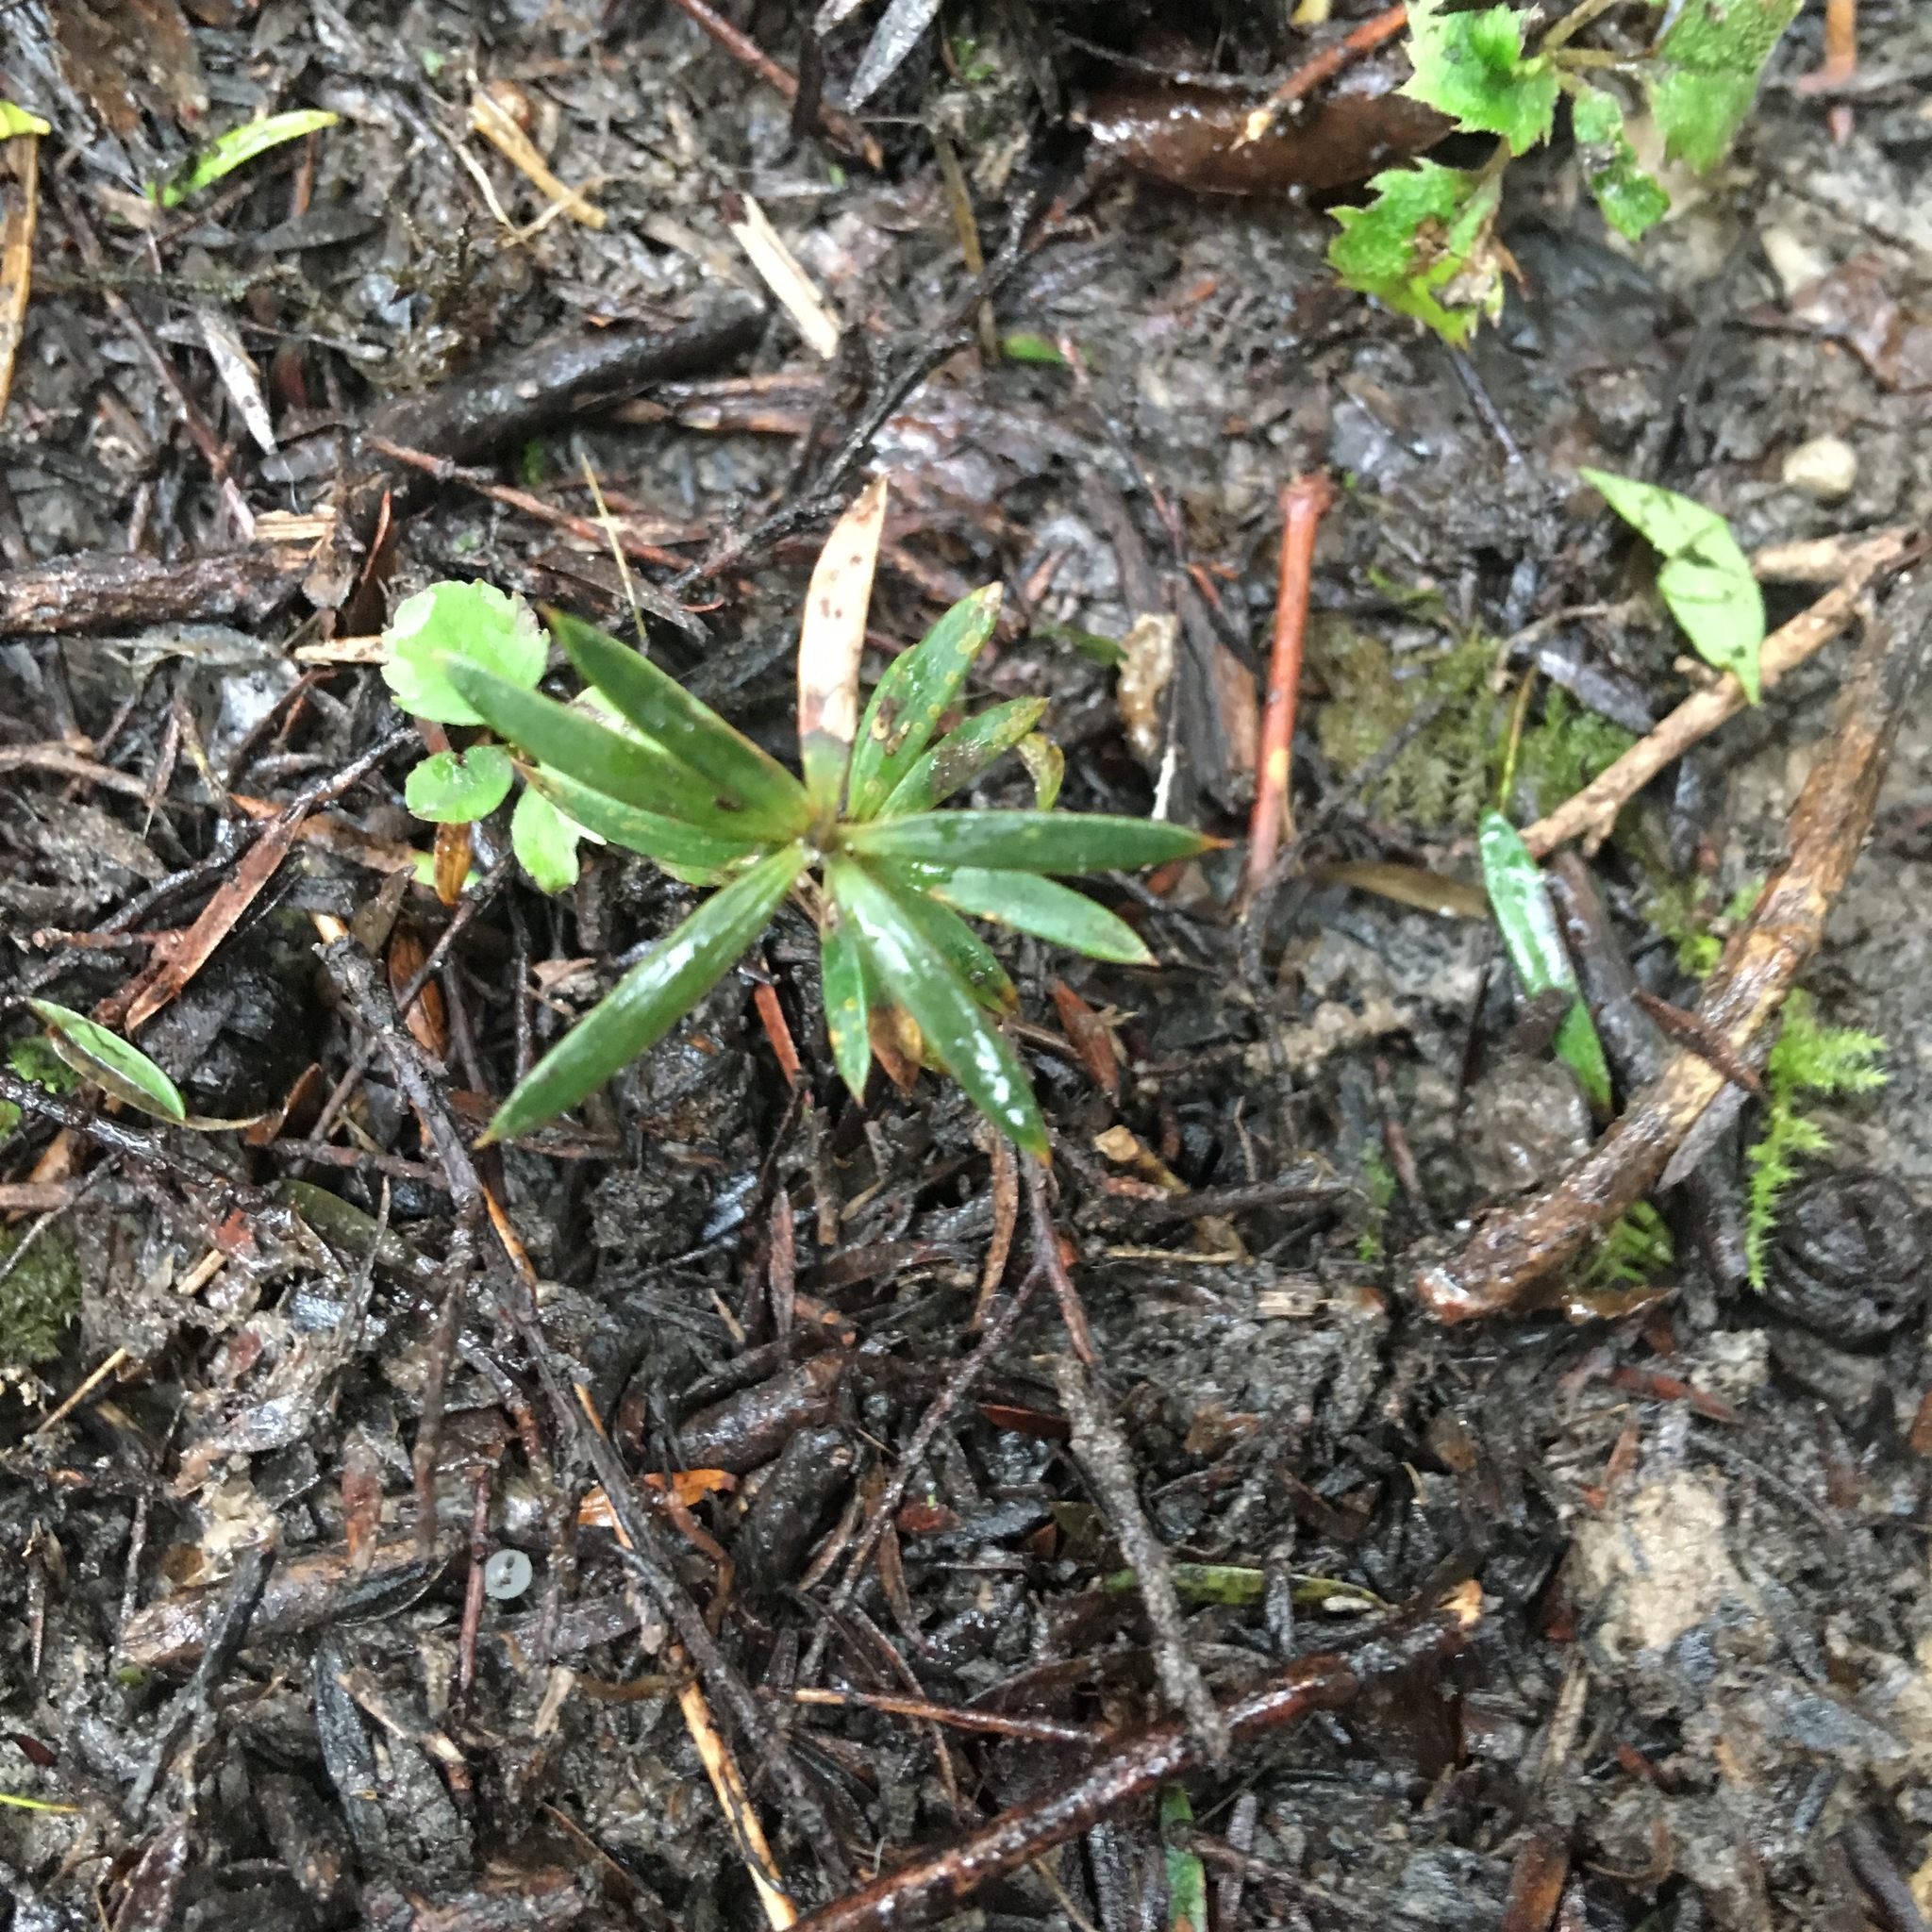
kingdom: Plantae
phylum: Tracheophyta
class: Pinopsida
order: Pinales
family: Podocarpaceae
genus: Podocarpus
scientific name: Podocarpus totara
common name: Totara
